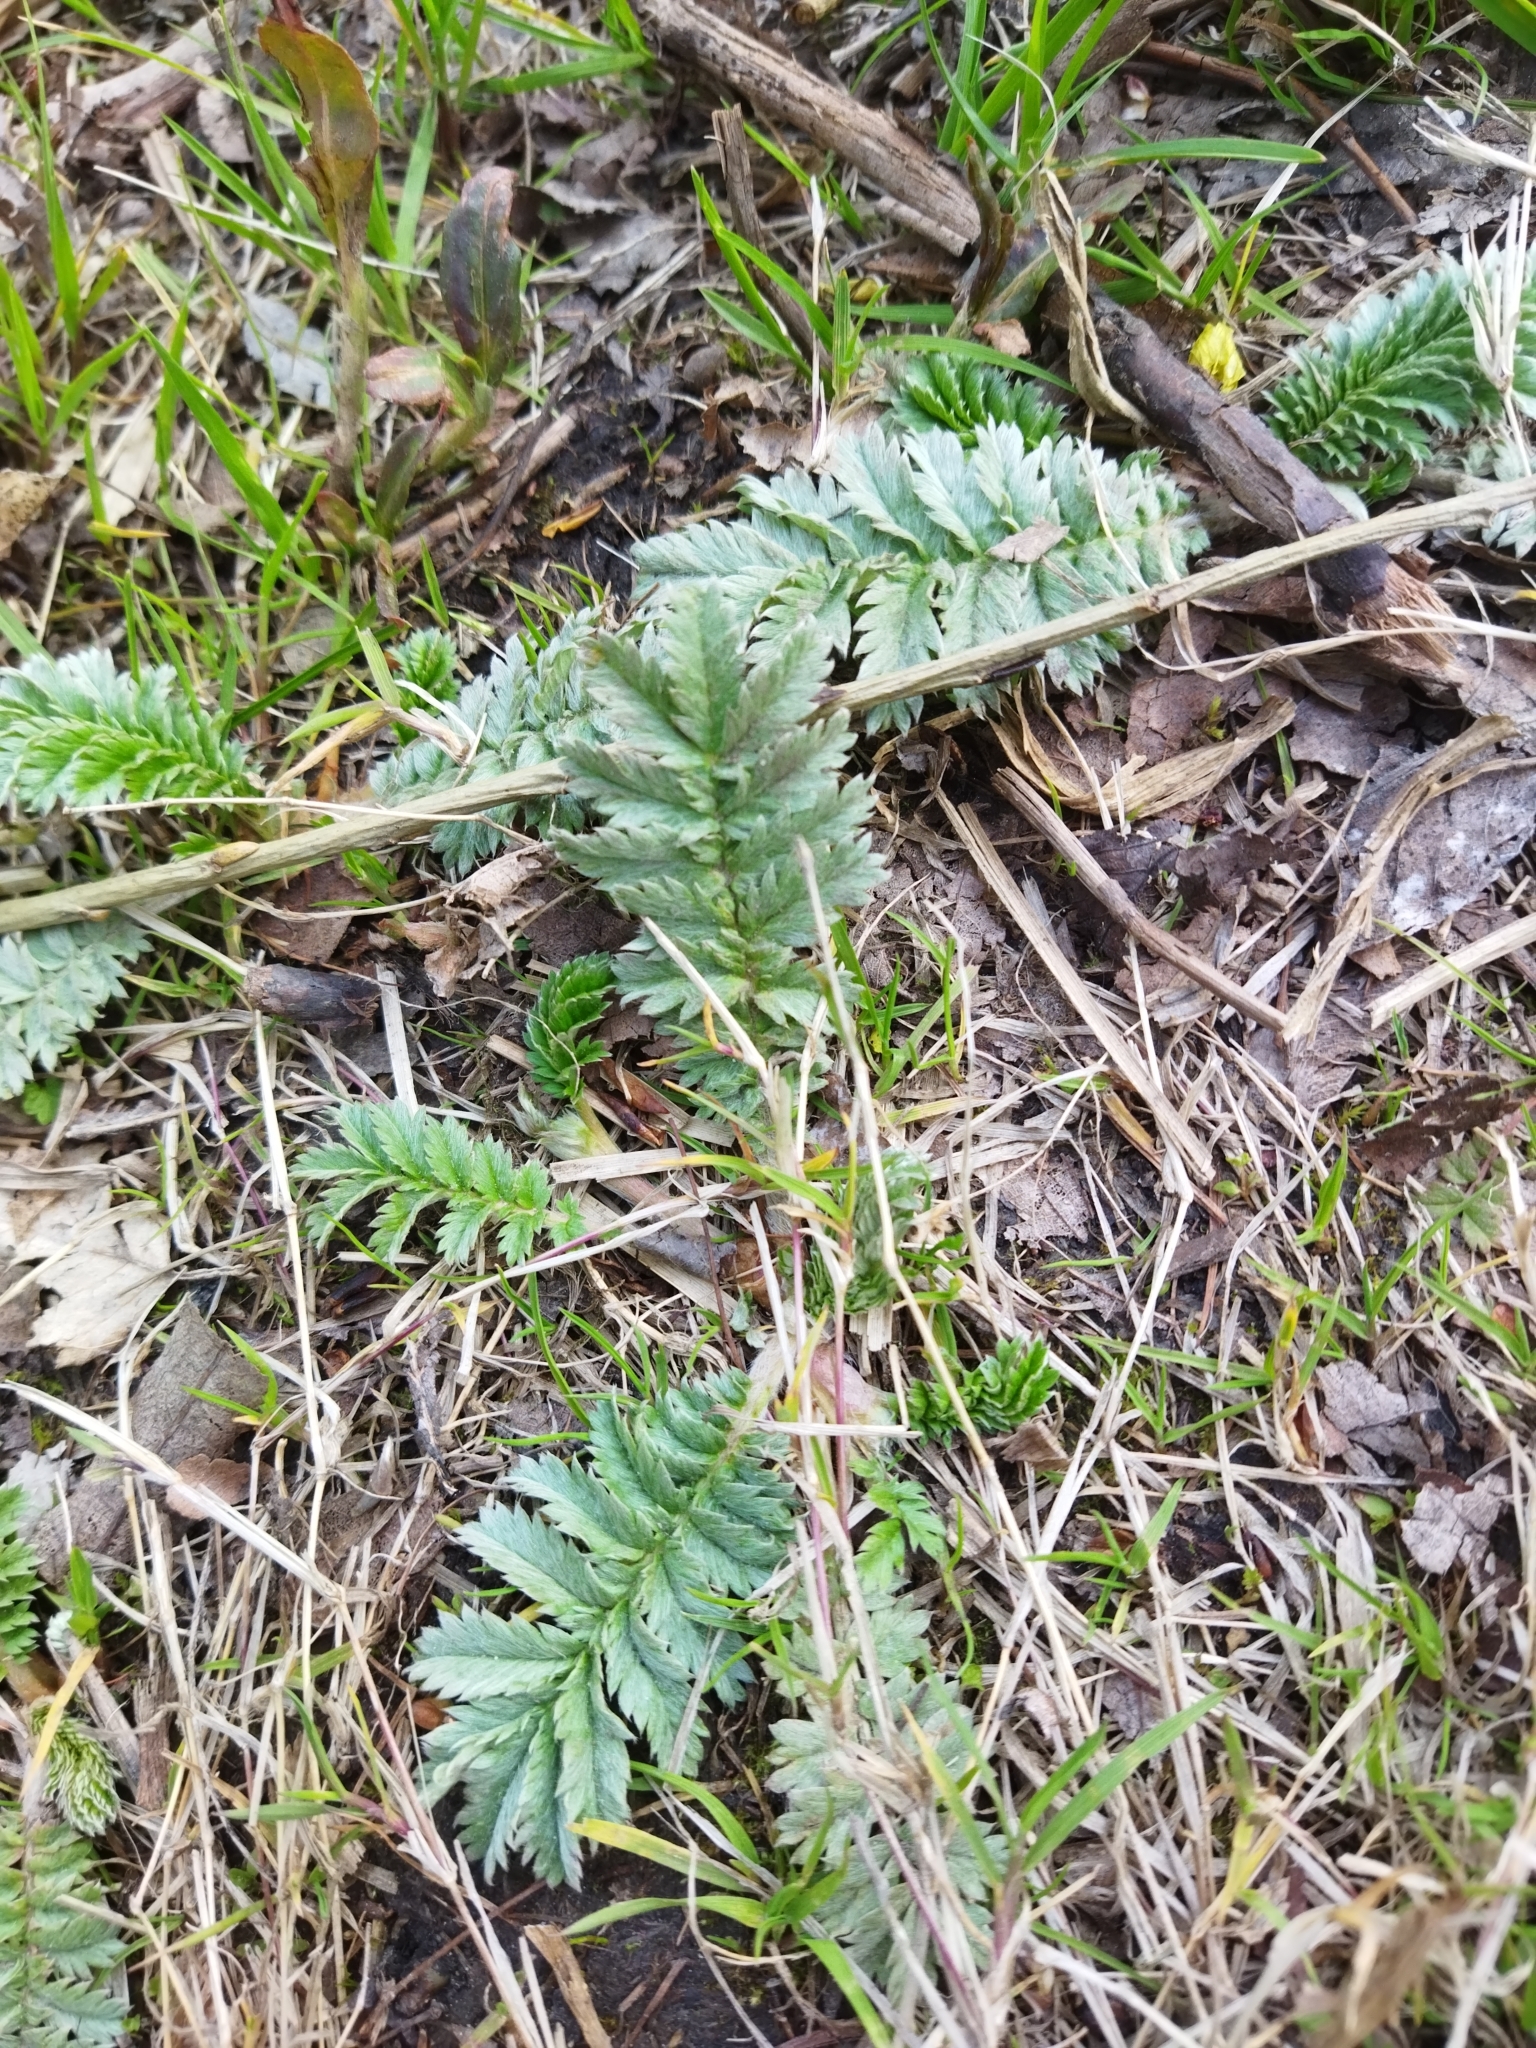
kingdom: Plantae
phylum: Tracheophyta
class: Magnoliopsida
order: Rosales
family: Rosaceae
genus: Argentina
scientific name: Argentina anserina
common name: Common silverweed
